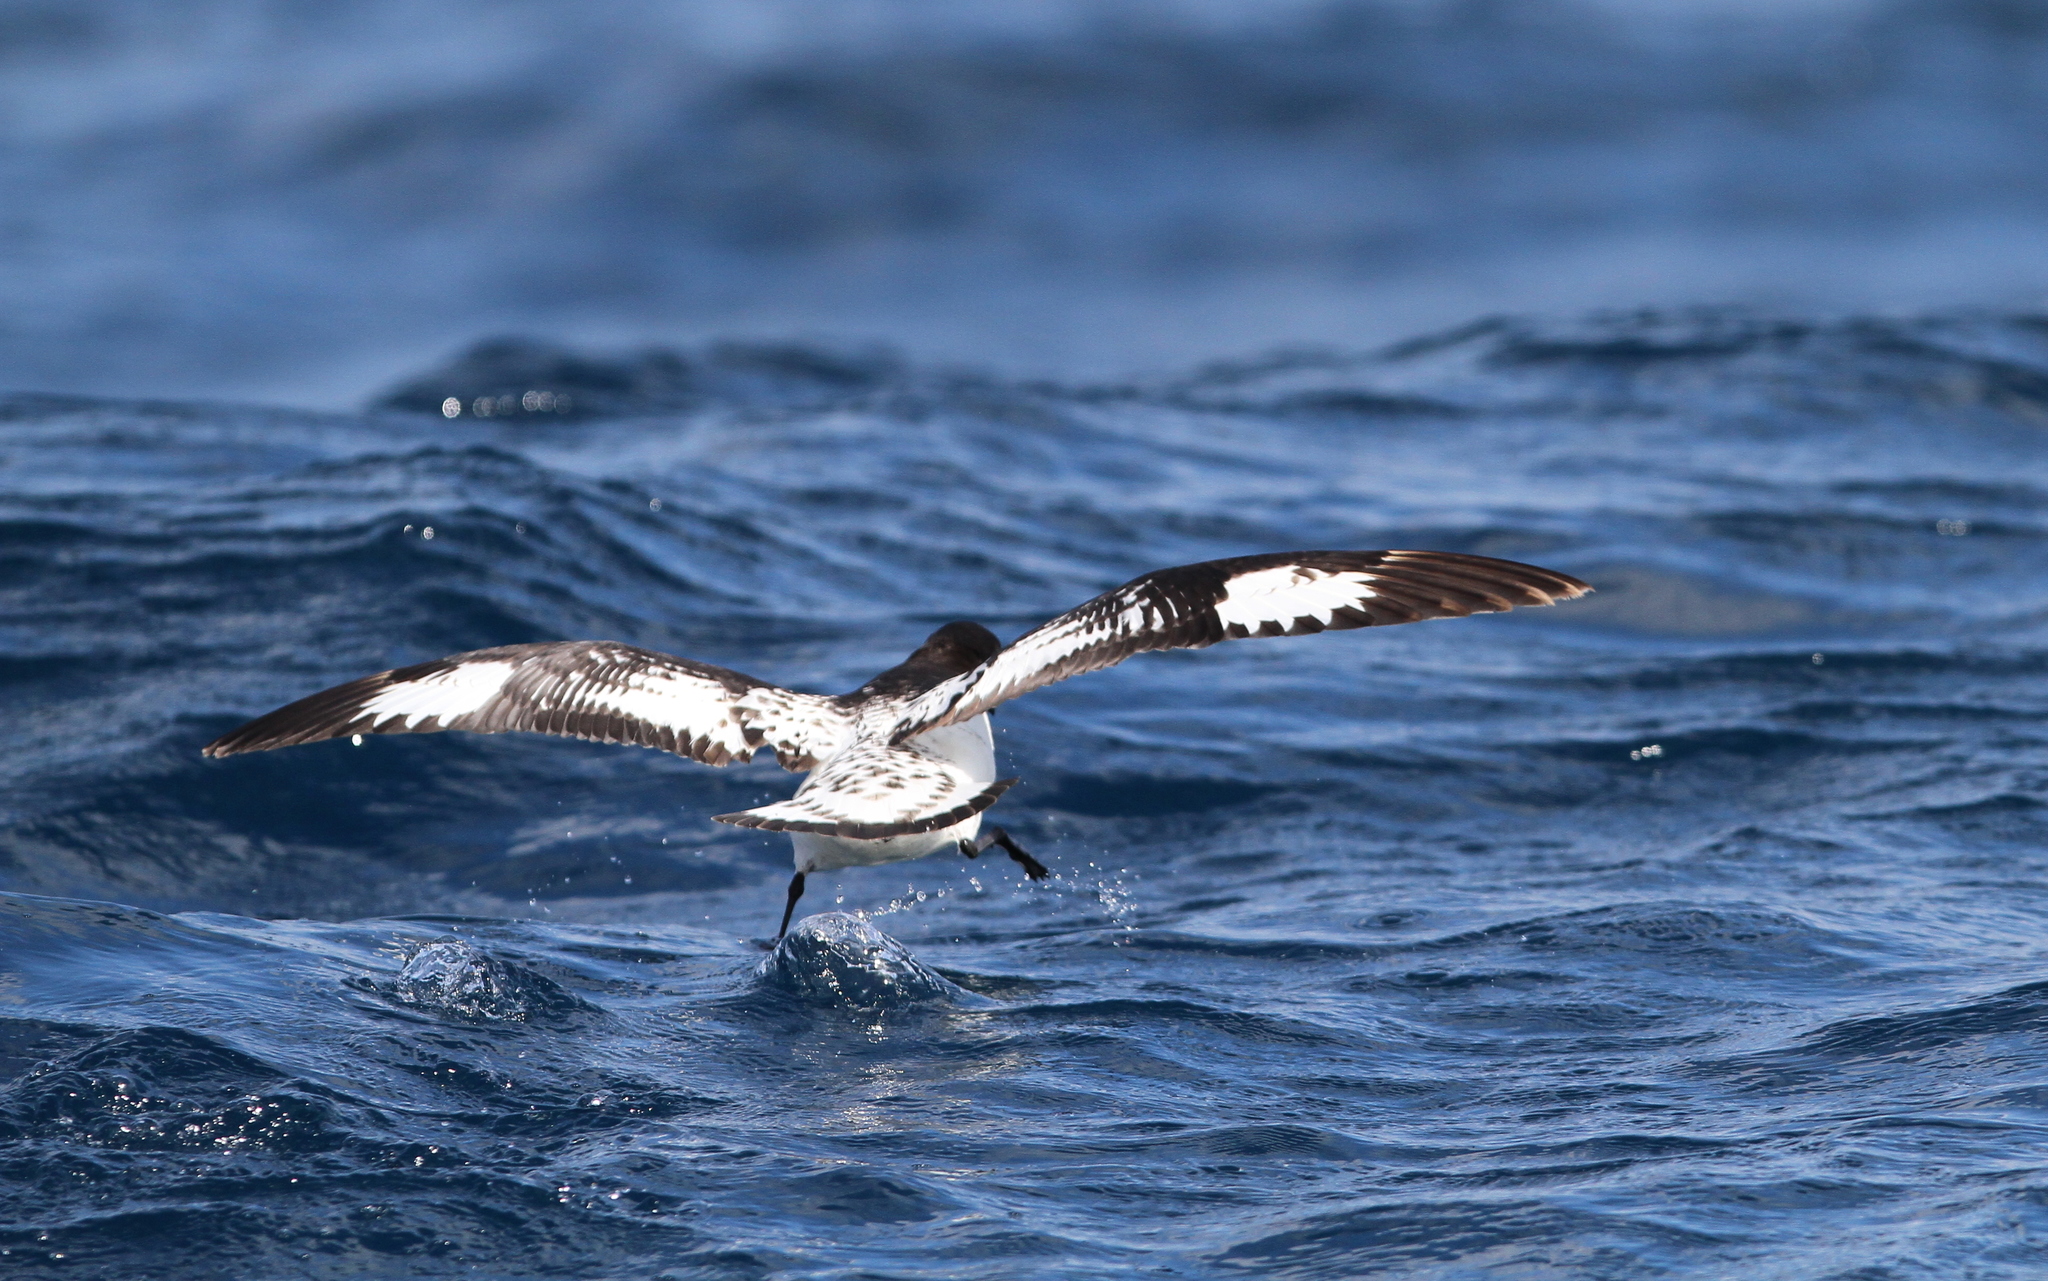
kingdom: Animalia
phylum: Chordata
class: Aves
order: Procellariiformes
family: Procellariidae
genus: Daption
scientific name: Daption capense
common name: Cape petrel
